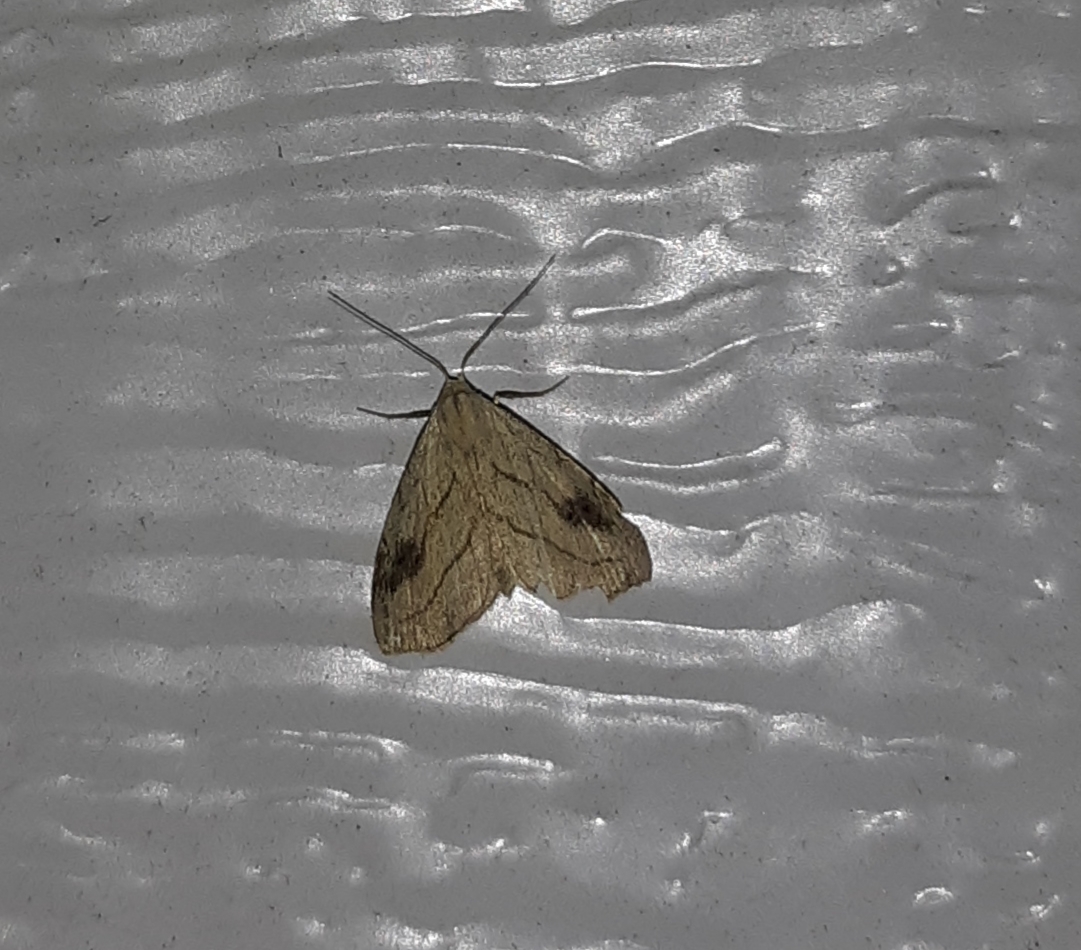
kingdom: Animalia
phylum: Arthropoda
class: Insecta
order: Lepidoptera
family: Erebidae
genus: Rivula
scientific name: Rivula propinqualis
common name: Spotted grass moth
